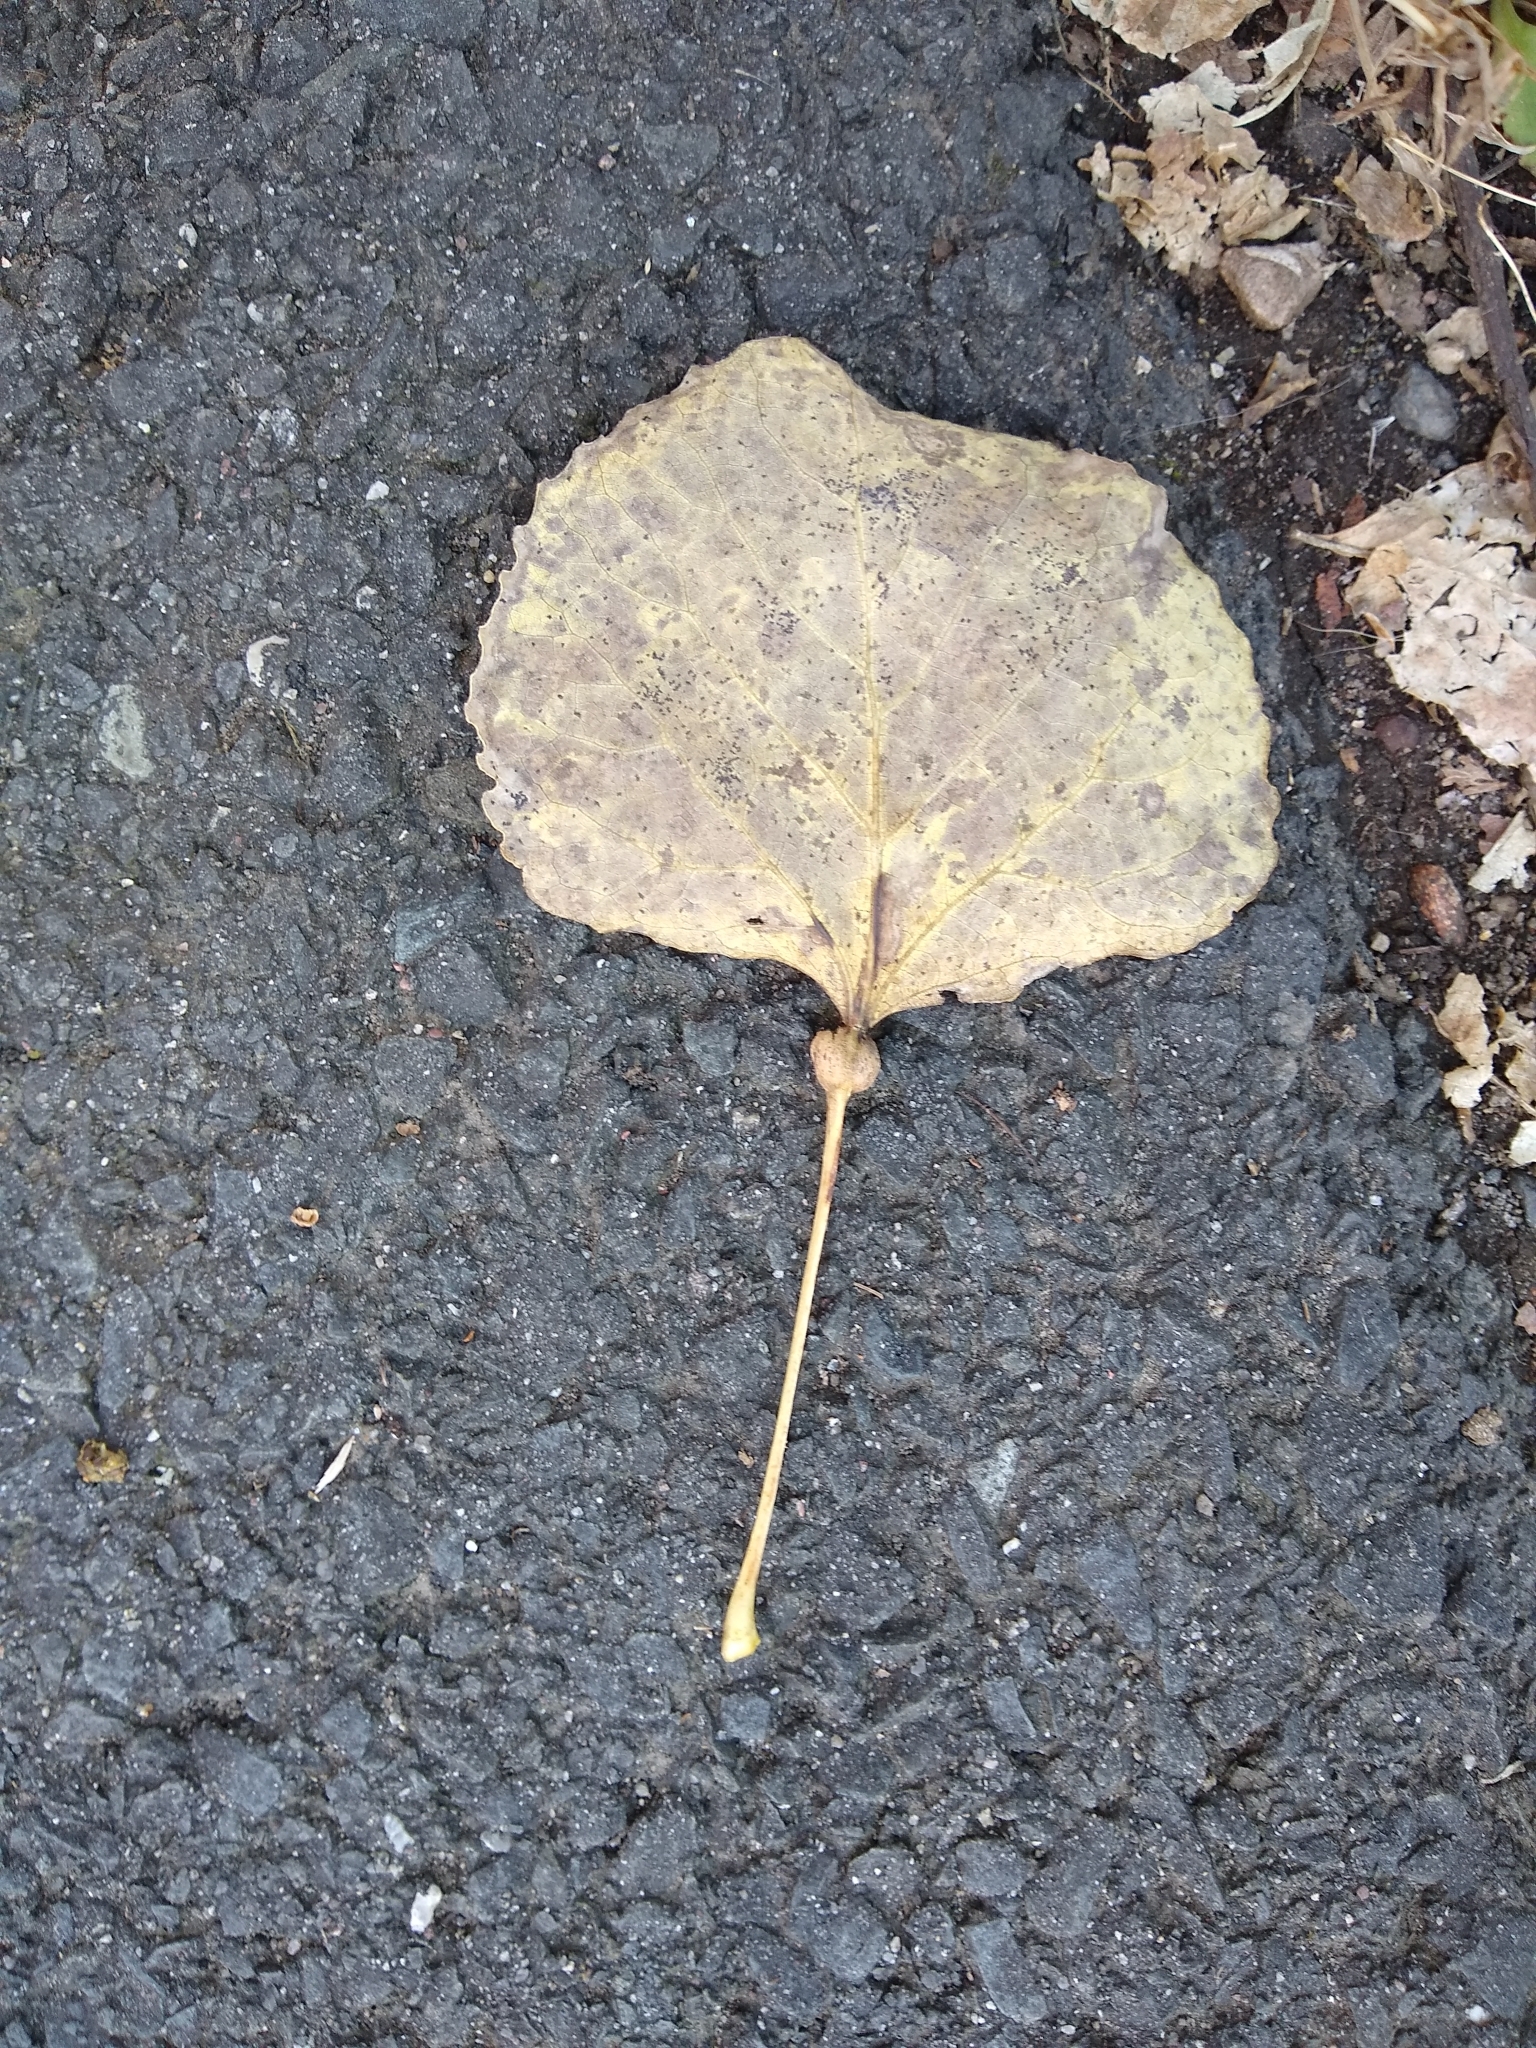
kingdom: Animalia
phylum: Arthropoda
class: Insecta
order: Lepidoptera
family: Nepticulidae
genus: Ectoedemia
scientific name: Ectoedemia populella
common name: Aspen petiole gall moth
